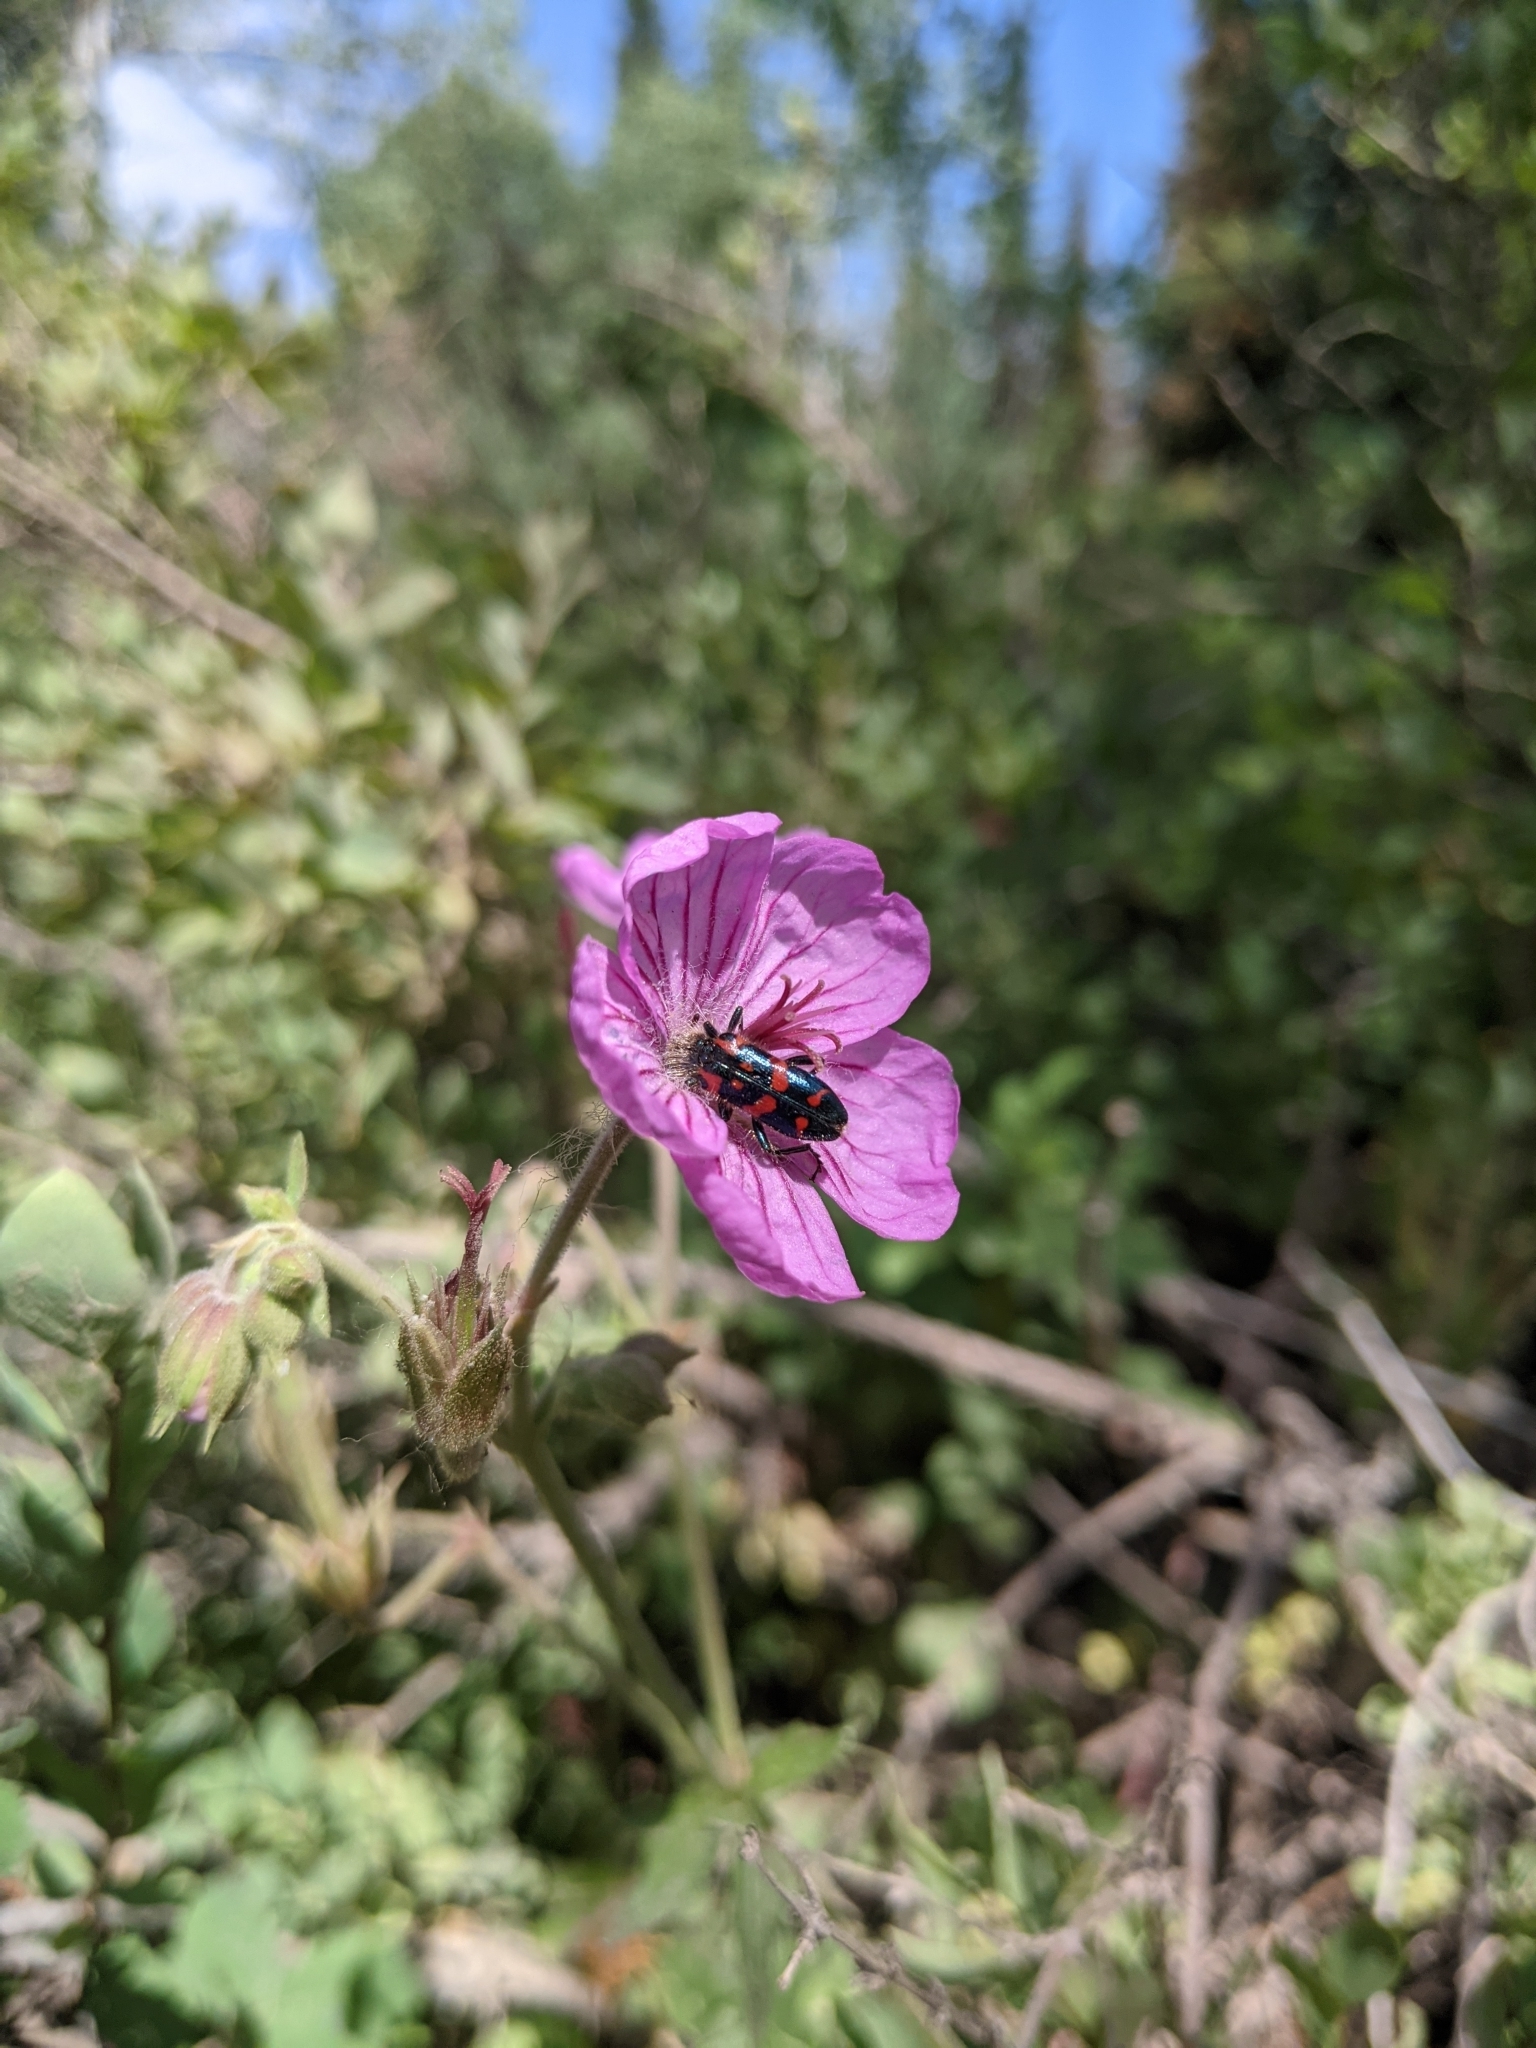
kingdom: Animalia
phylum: Arthropoda
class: Insecta
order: Coleoptera
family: Cleridae
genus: Trichodes
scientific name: Trichodes ornatus
